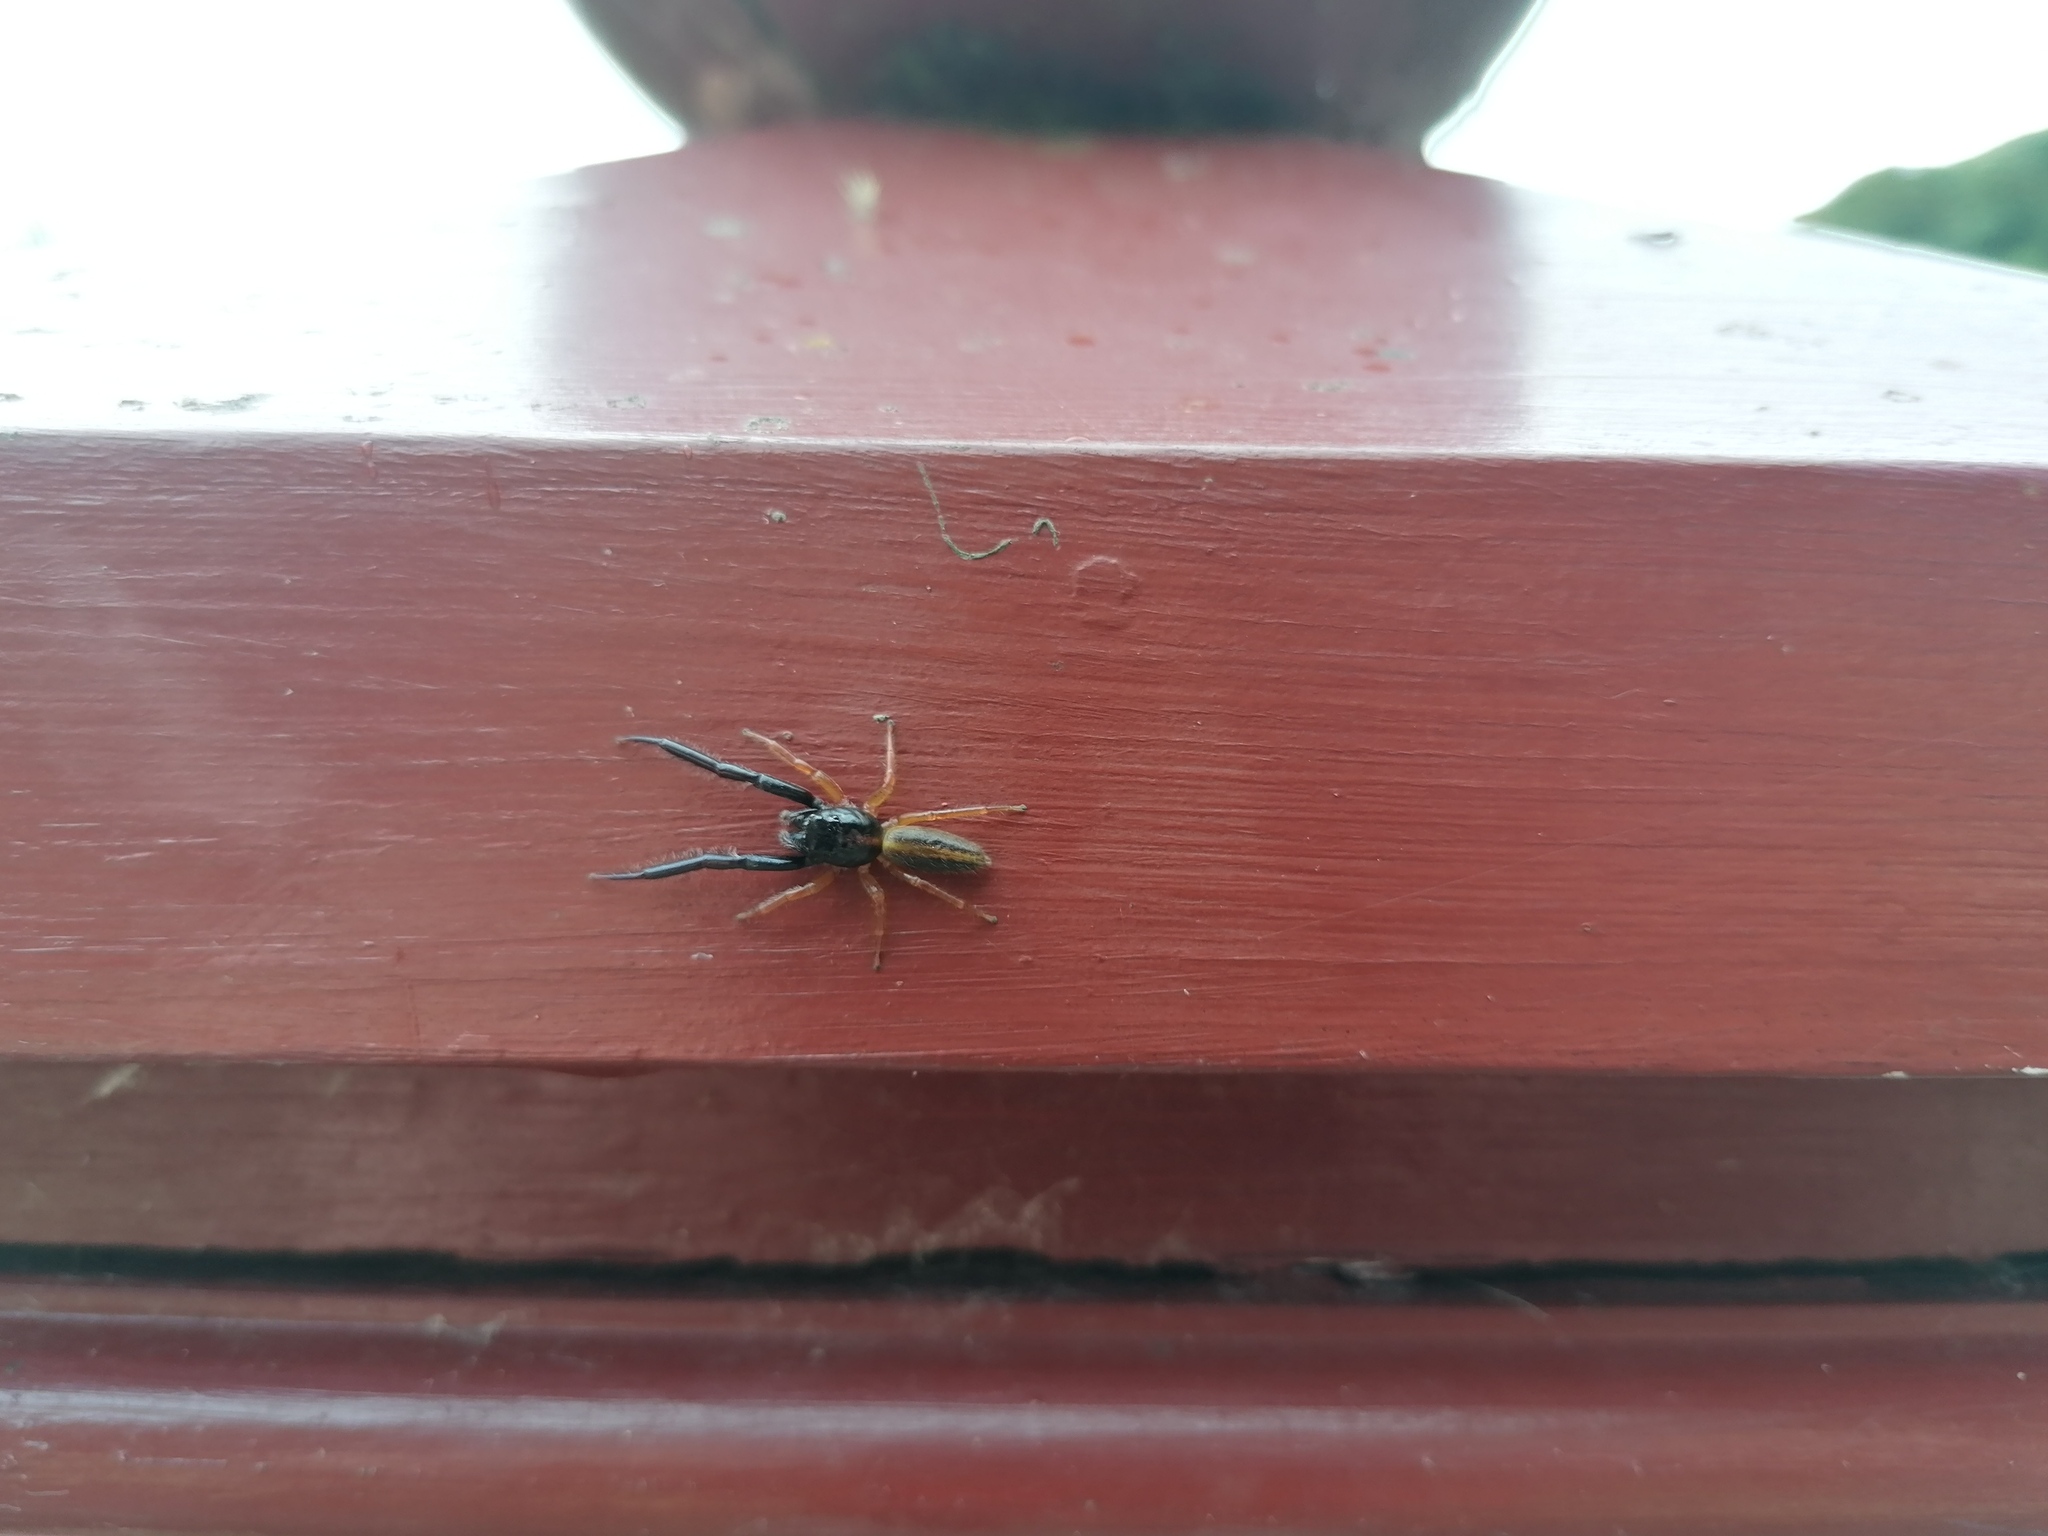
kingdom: Animalia
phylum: Arthropoda
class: Arachnida
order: Araneae
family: Salticidae
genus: Trite
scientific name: Trite planiceps
